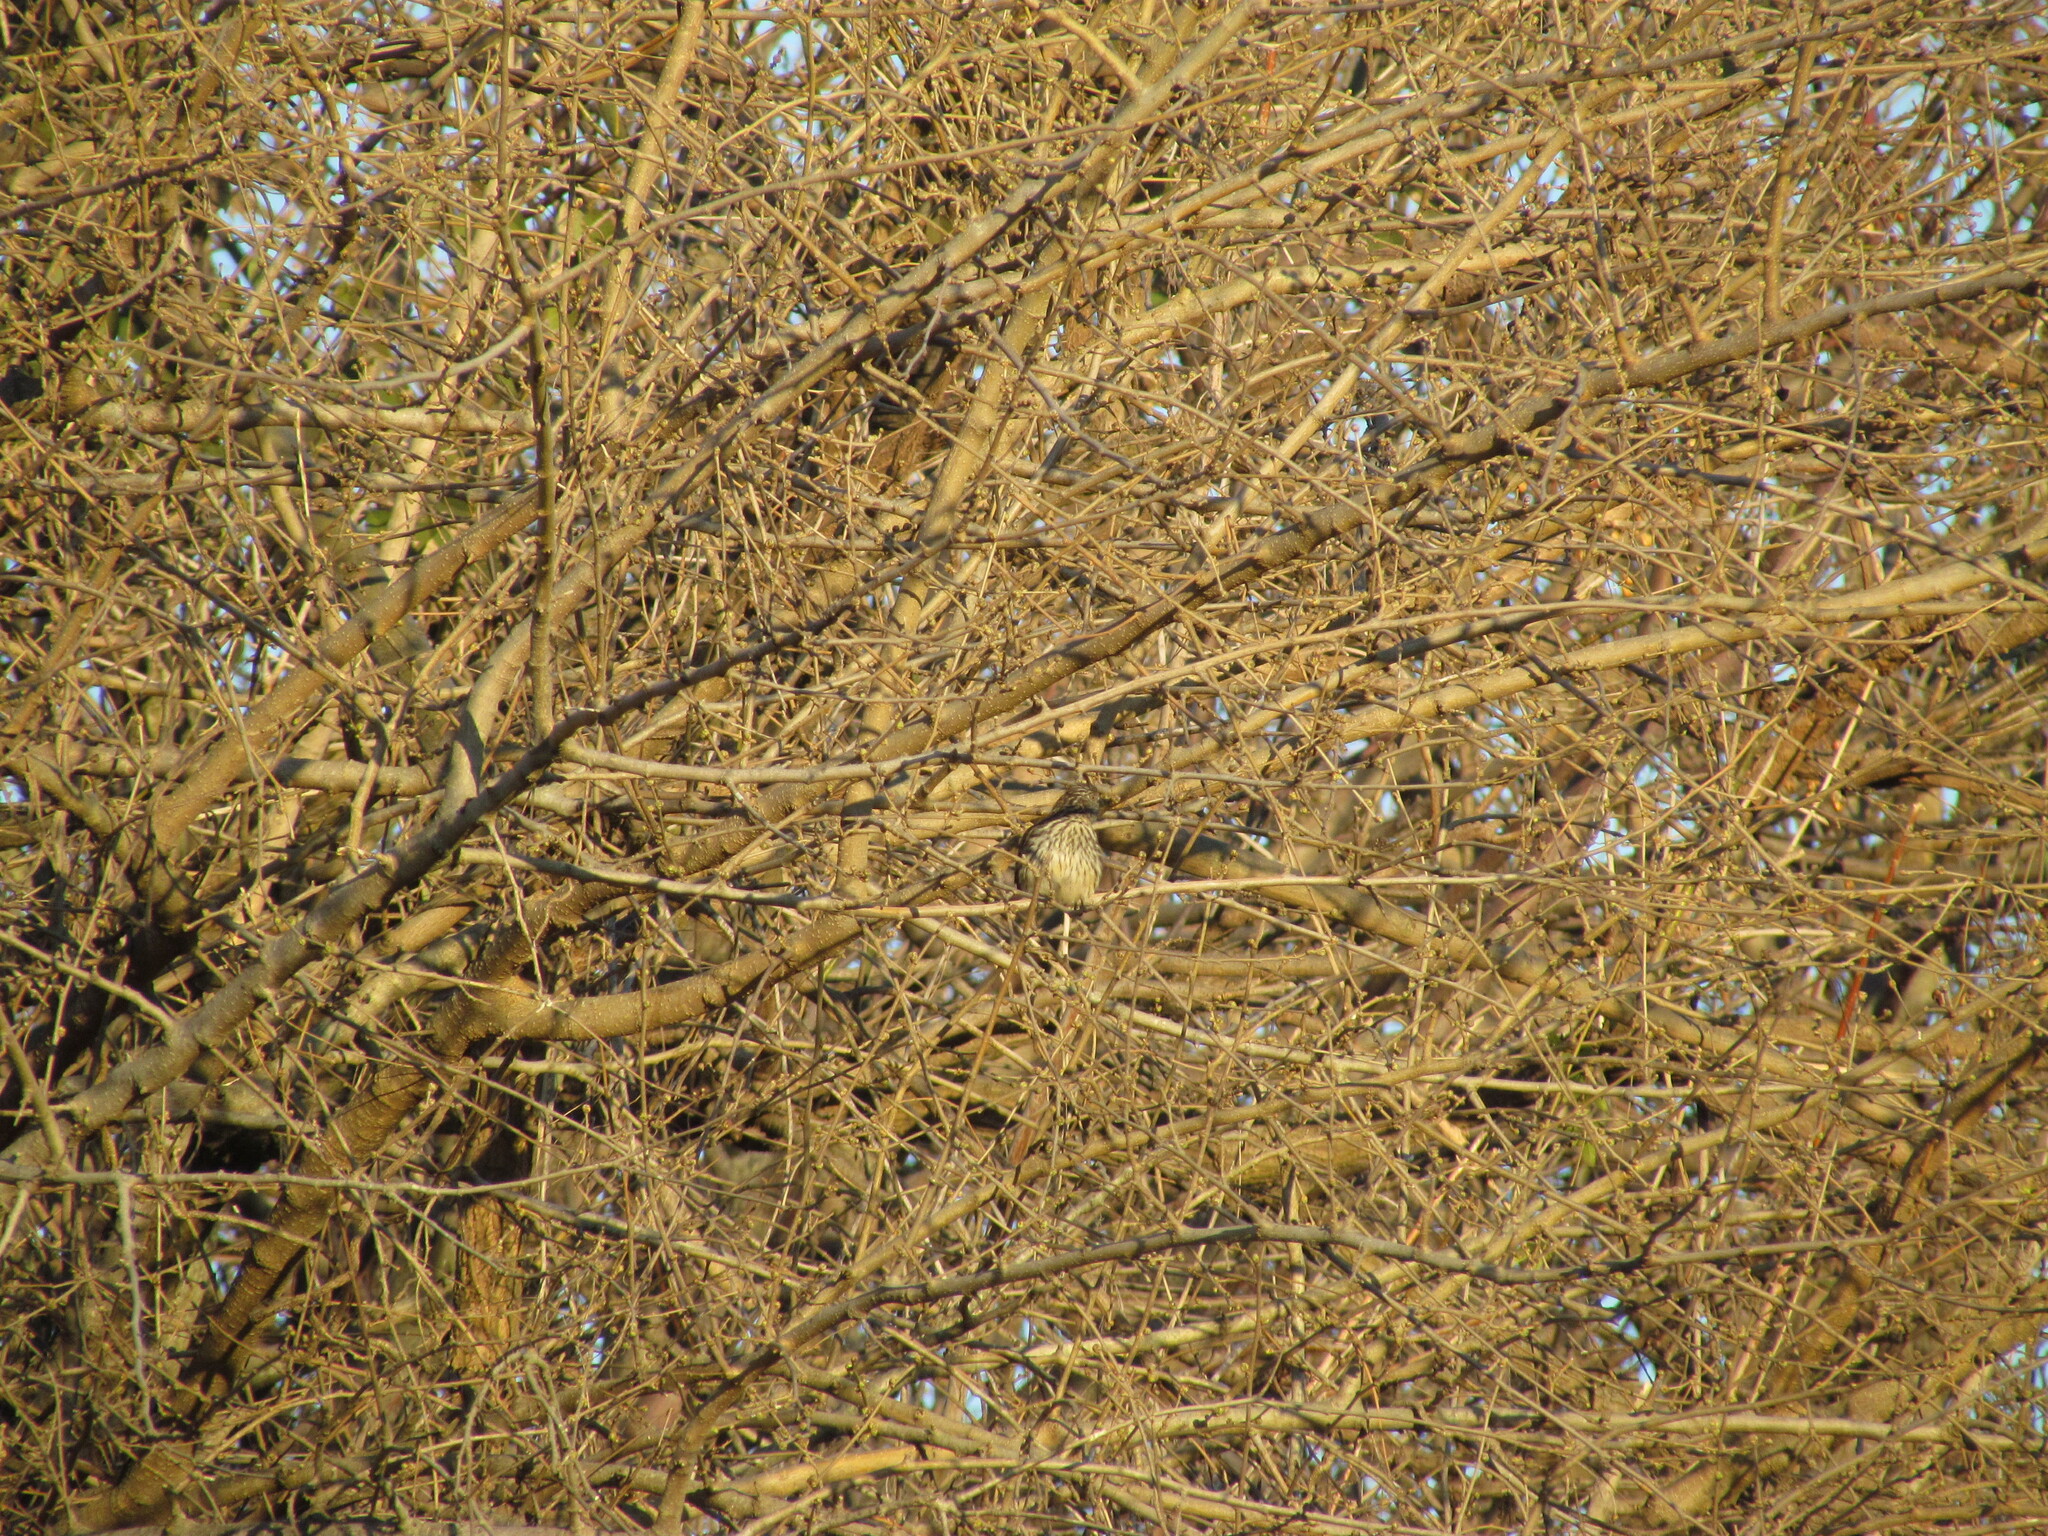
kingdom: Animalia
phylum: Chordata
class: Aves
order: Passeriformes
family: Cotingidae
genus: Phytotoma
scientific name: Phytotoma rutila
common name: White-tipped plantcutter
